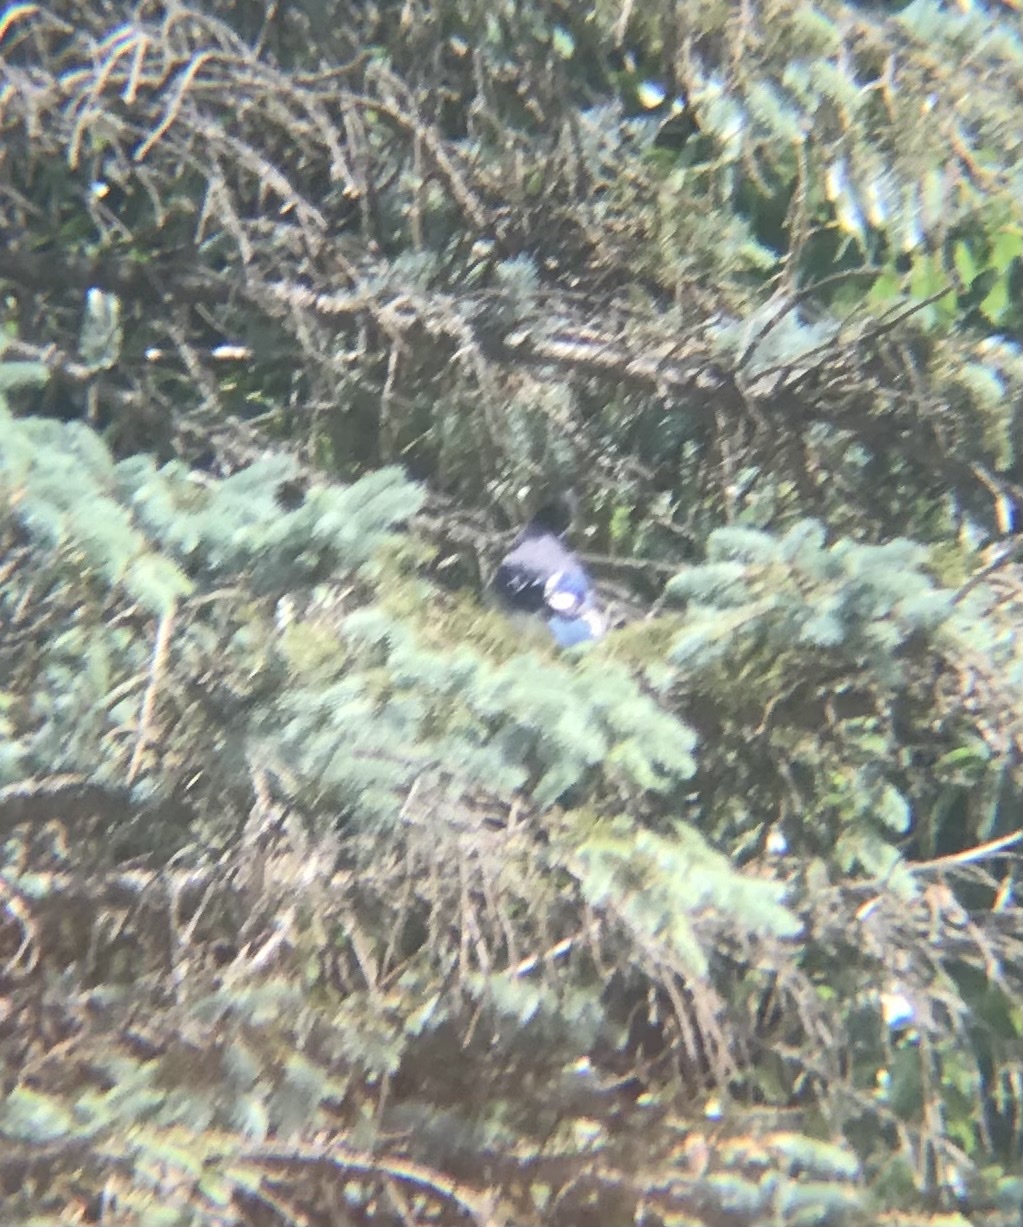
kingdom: Animalia
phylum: Chordata
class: Aves
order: Passeriformes
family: Corvidae
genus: Cyanocitta
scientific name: Cyanocitta cristata
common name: Blue jay
